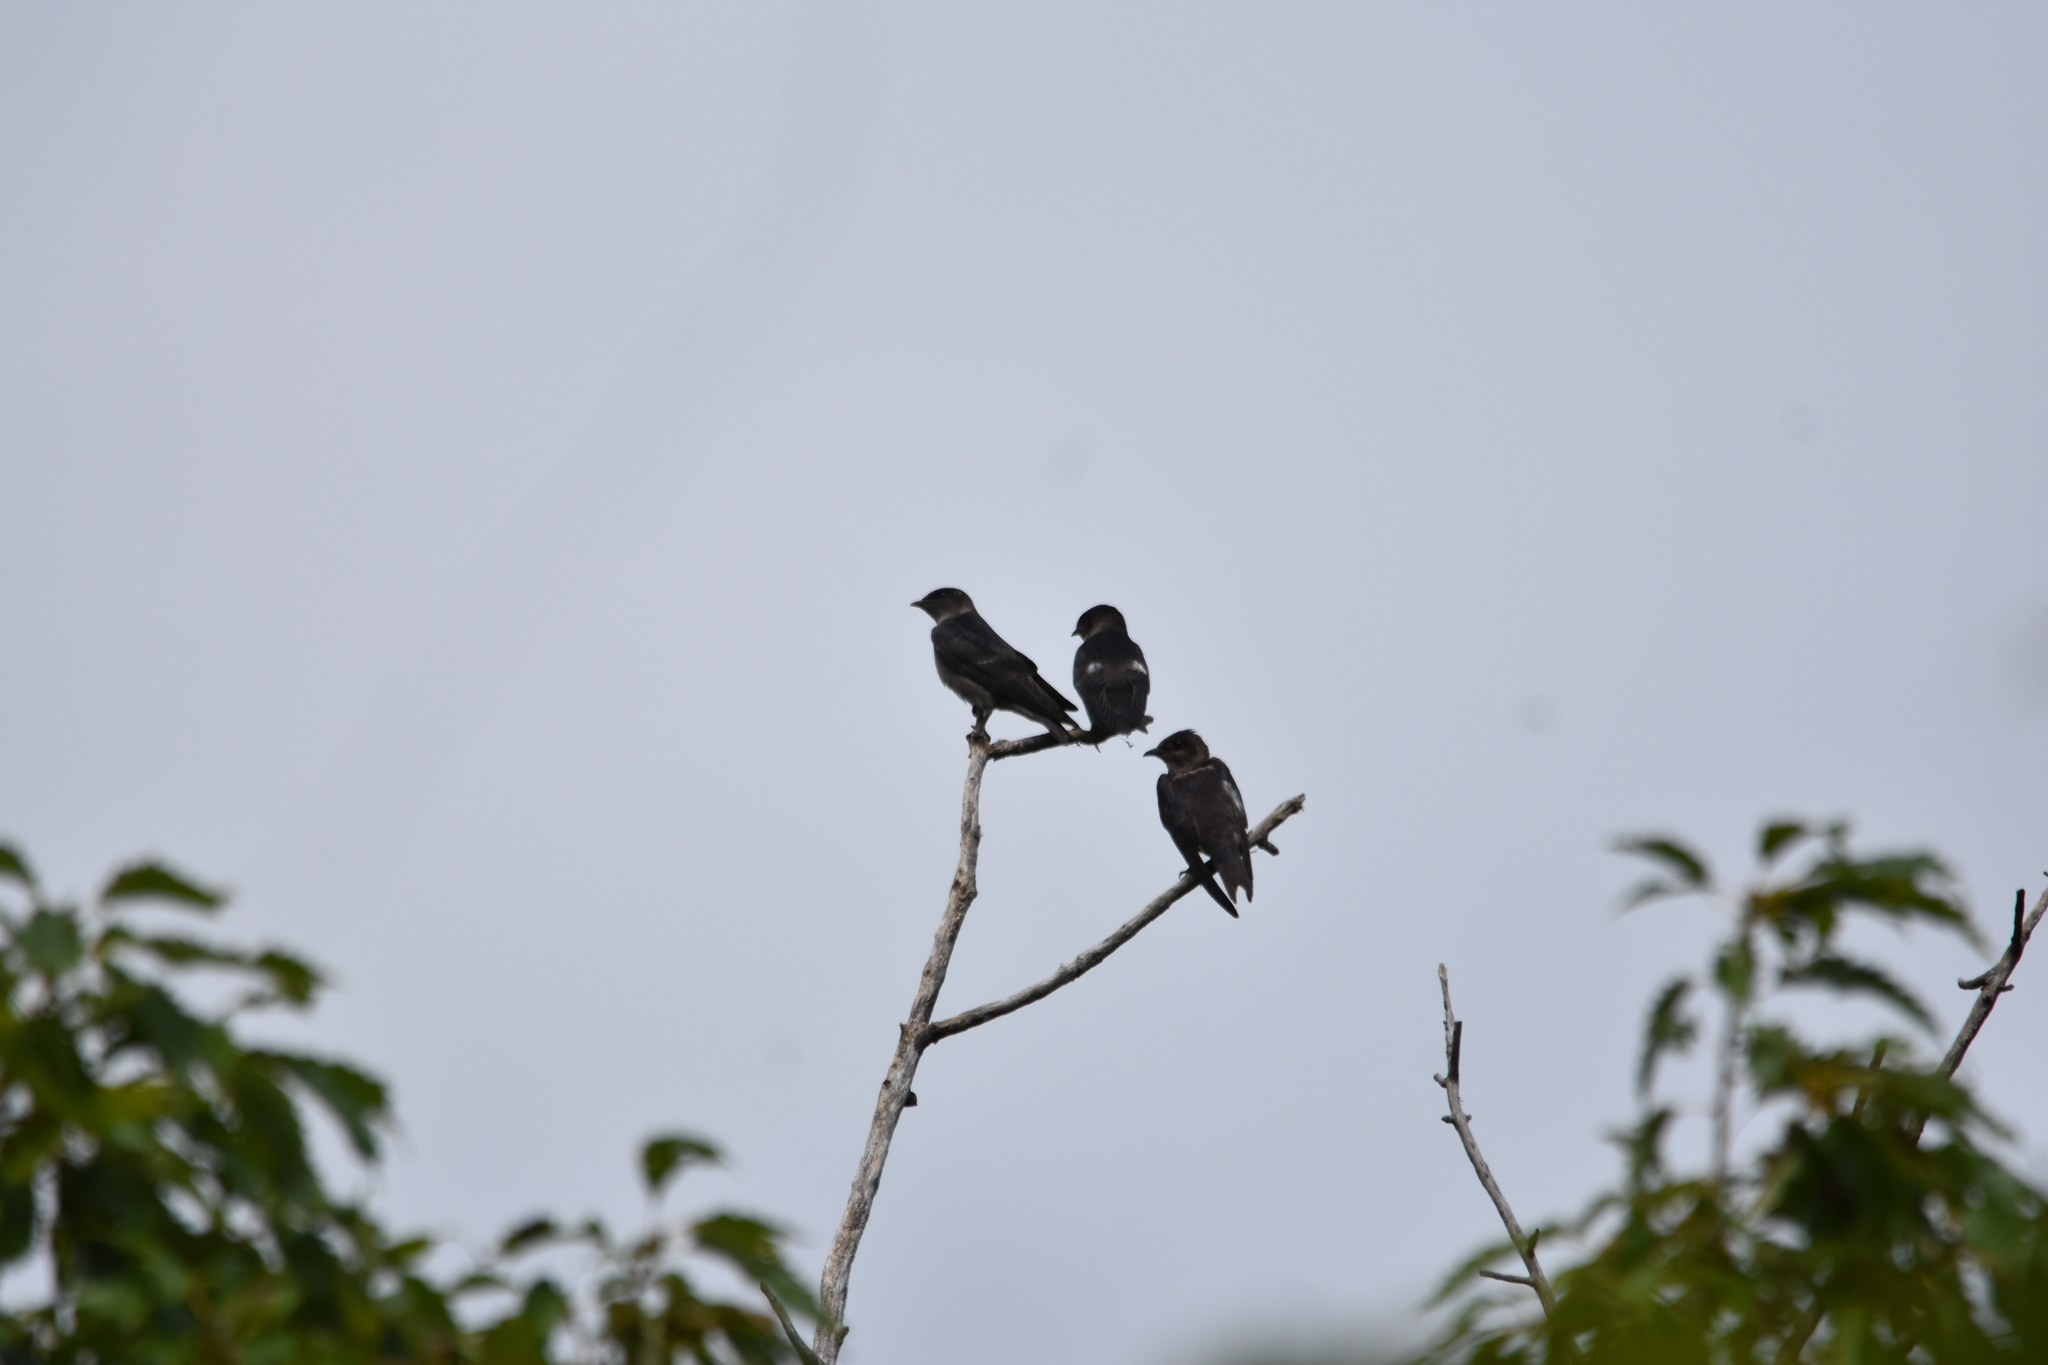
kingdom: Animalia
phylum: Chordata
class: Aves
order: Passeriformes
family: Hirundinidae
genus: Progne
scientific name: Progne subis
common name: Purple martin
